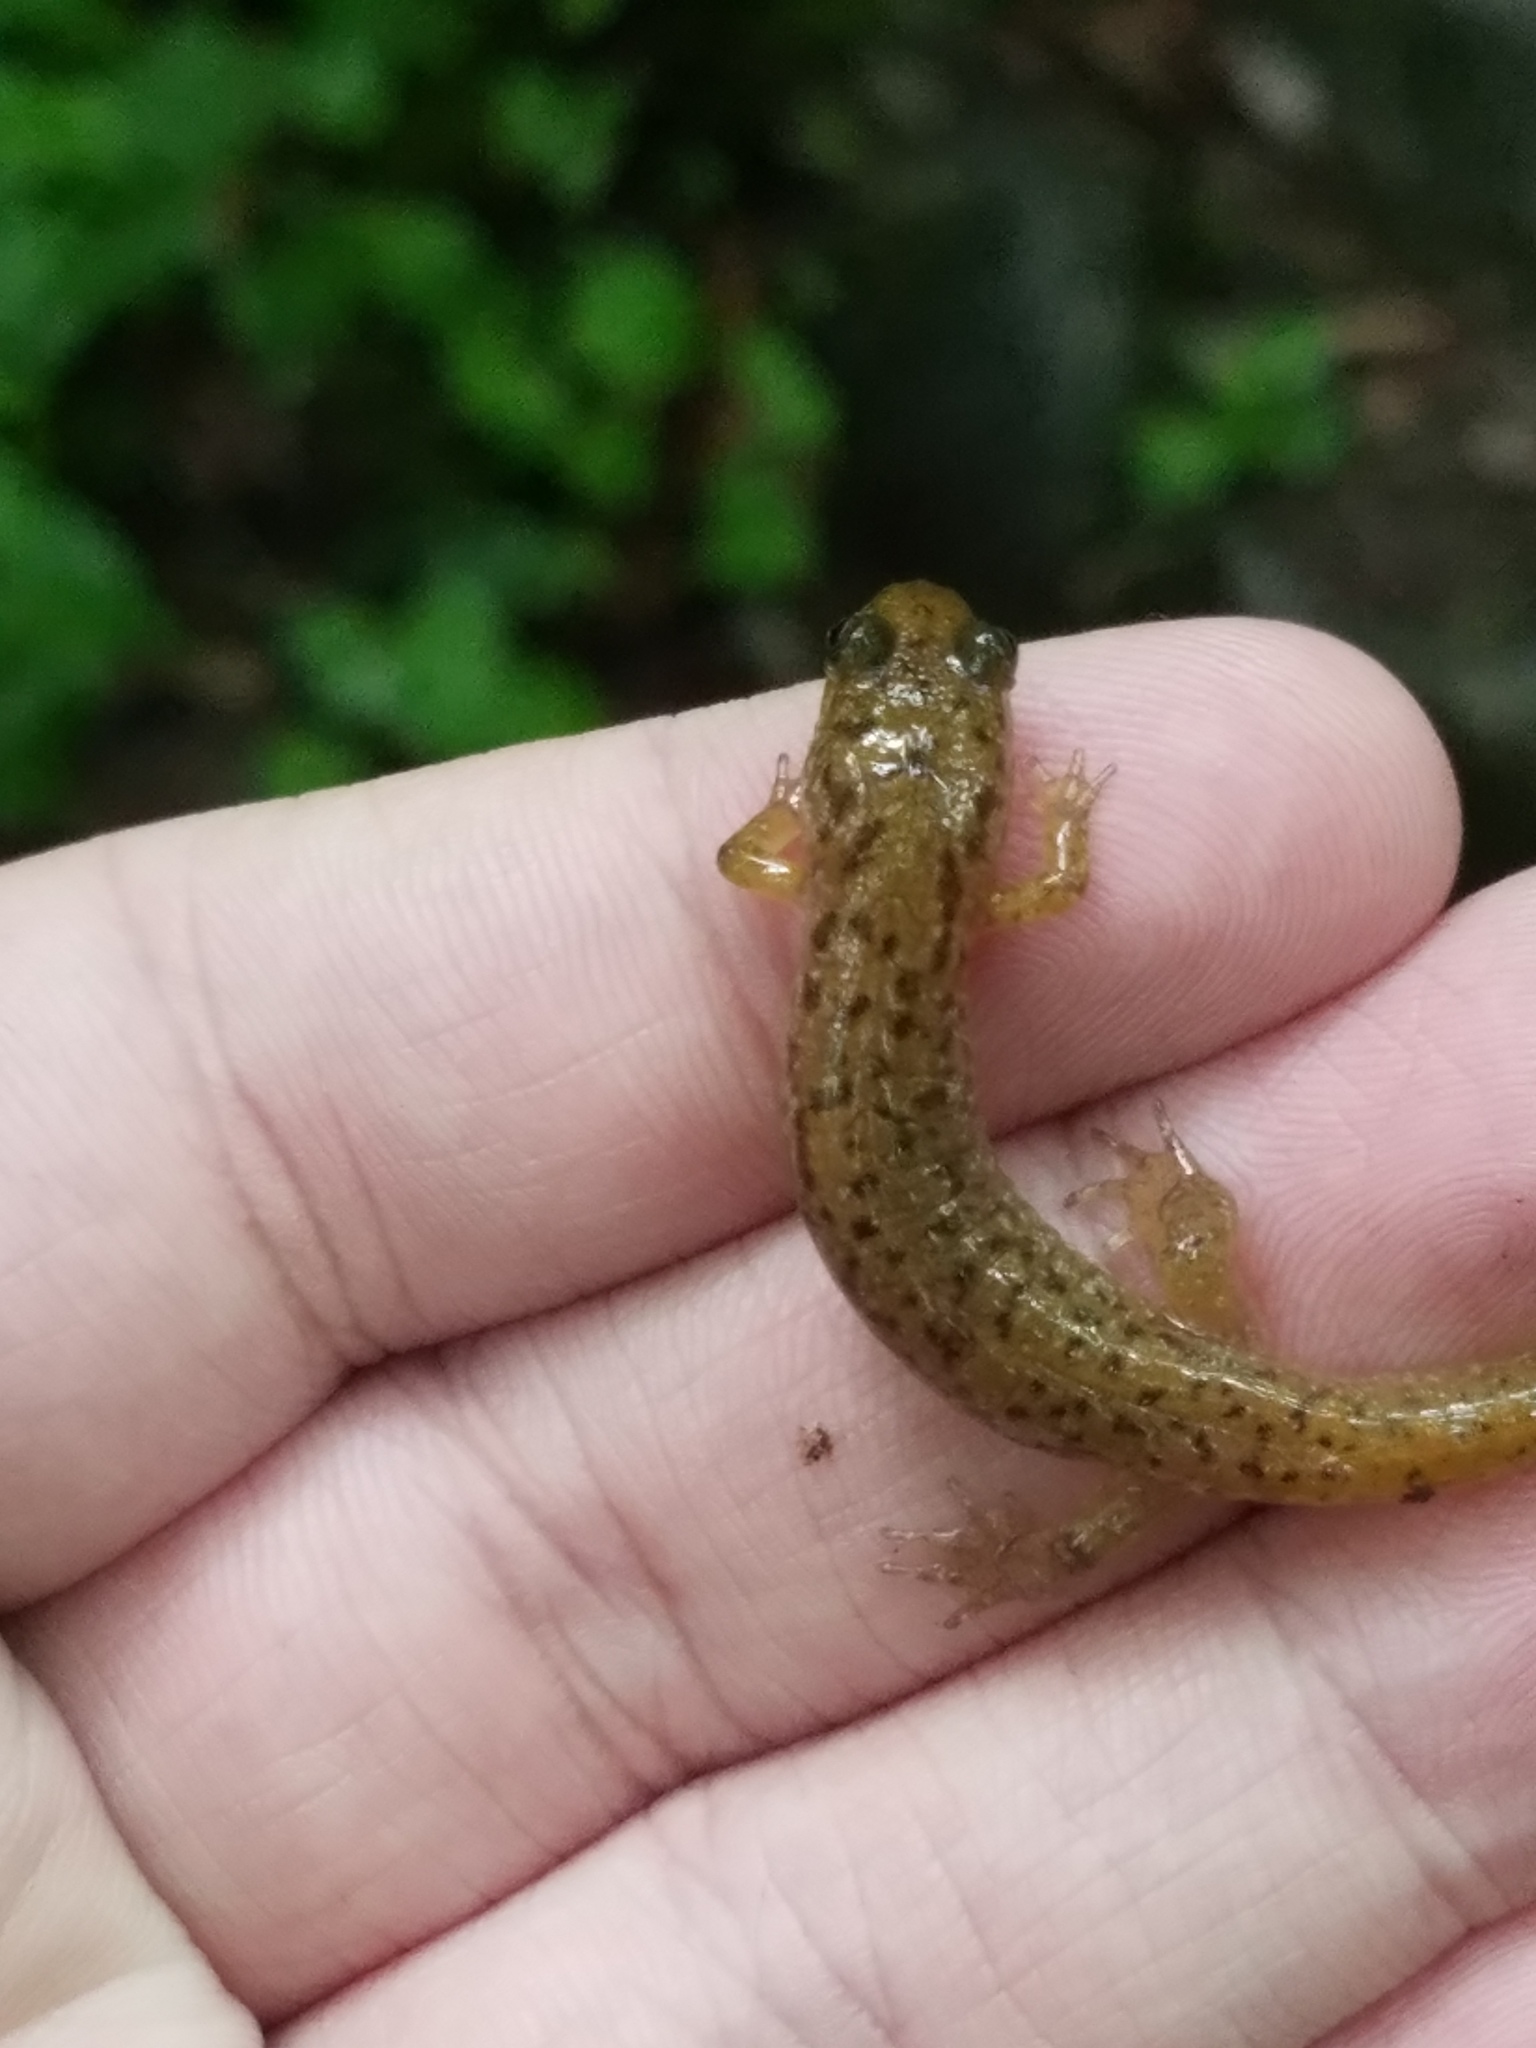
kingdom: Animalia
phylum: Chordata
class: Amphibia
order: Caudata
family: Plethodontidae
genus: Desmognathus
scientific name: Desmognathus monticola
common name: Seal salamander
